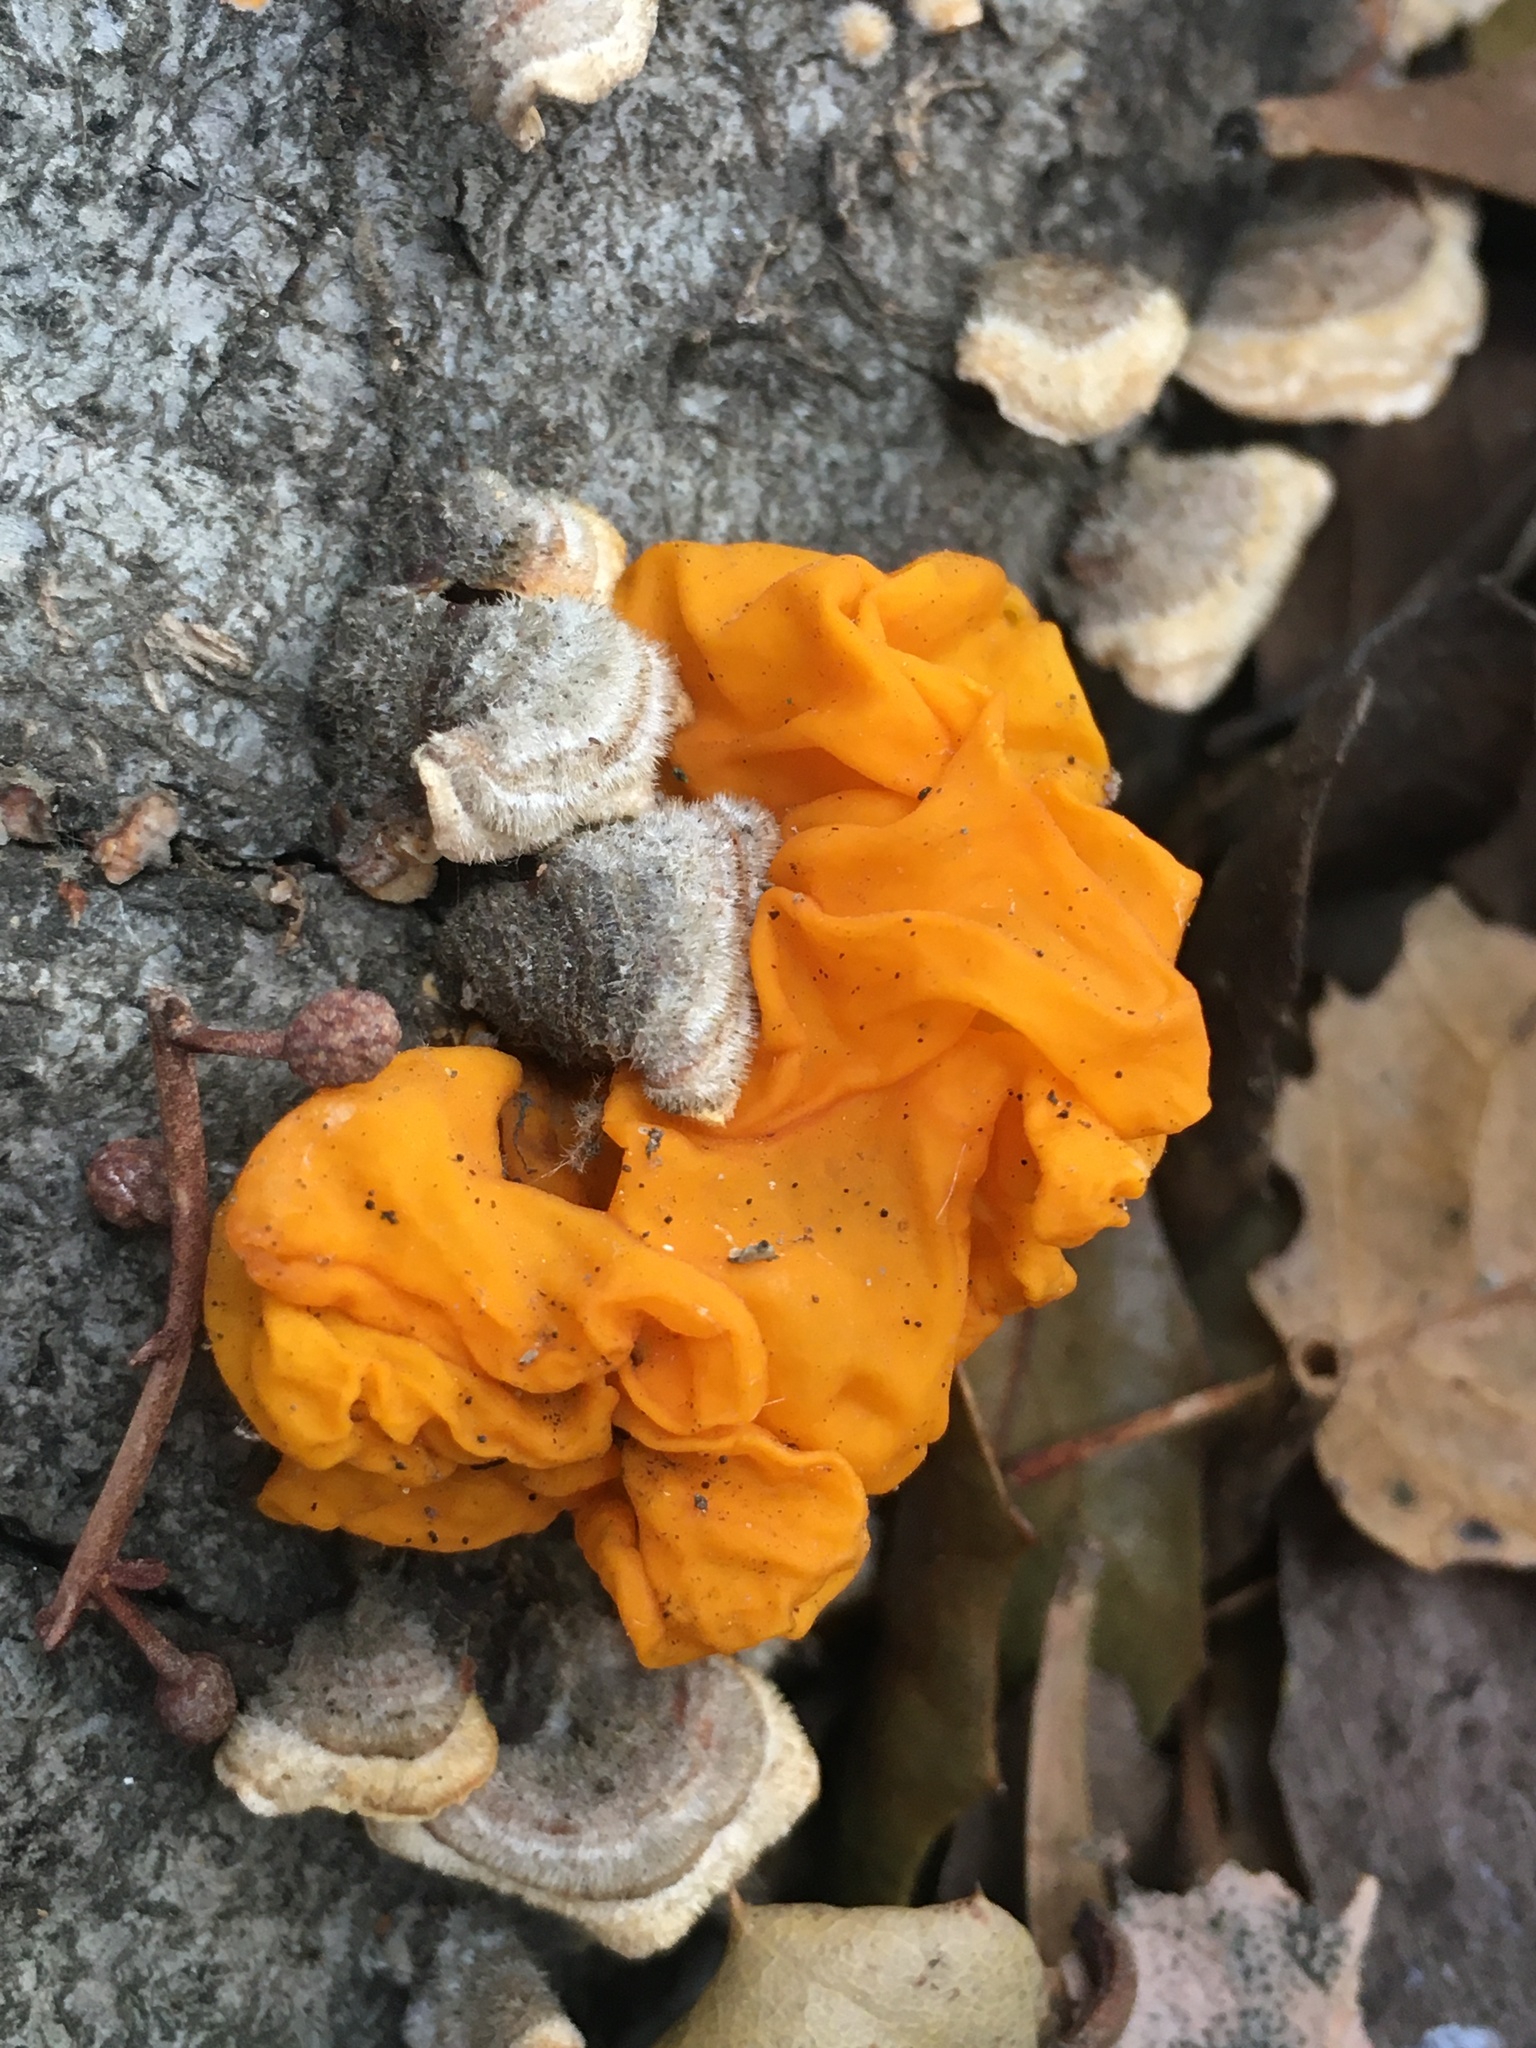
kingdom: Fungi
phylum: Basidiomycota
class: Tremellomycetes
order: Tremellales
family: Naemateliaceae
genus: Naematelia
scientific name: Naematelia aurantia
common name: Golden ear
